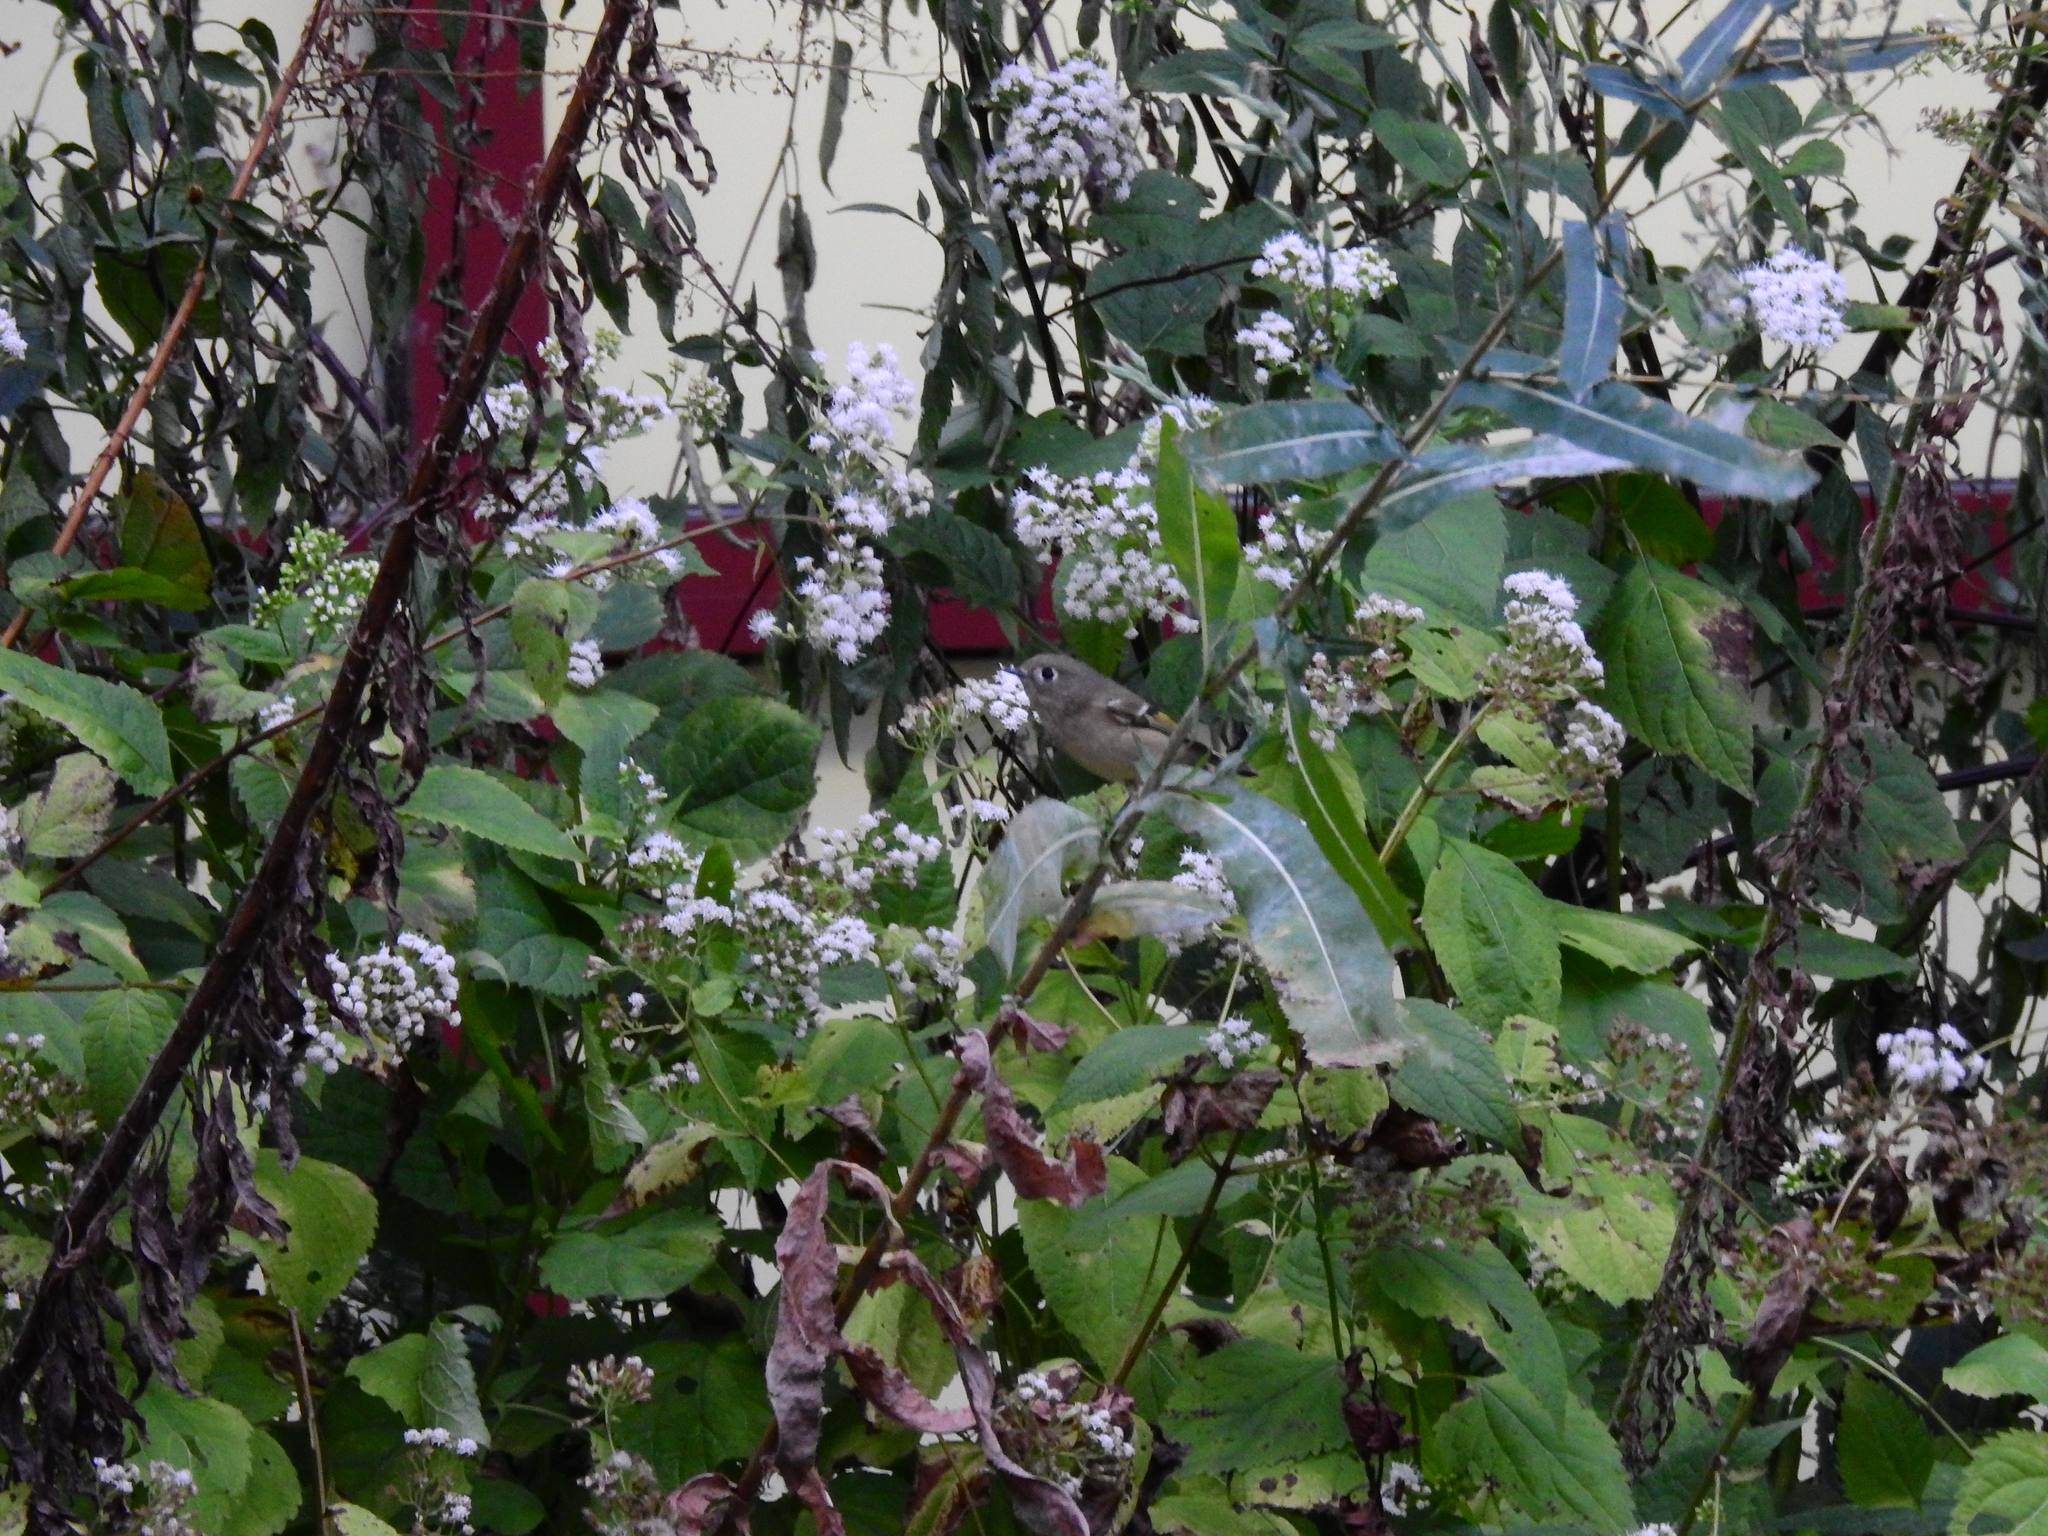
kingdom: Animalia
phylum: Chordata
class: Aves
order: Passeriformes
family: Regulidae
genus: Regulus
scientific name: Regulus calendula
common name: Ruby-crowned kinglet
